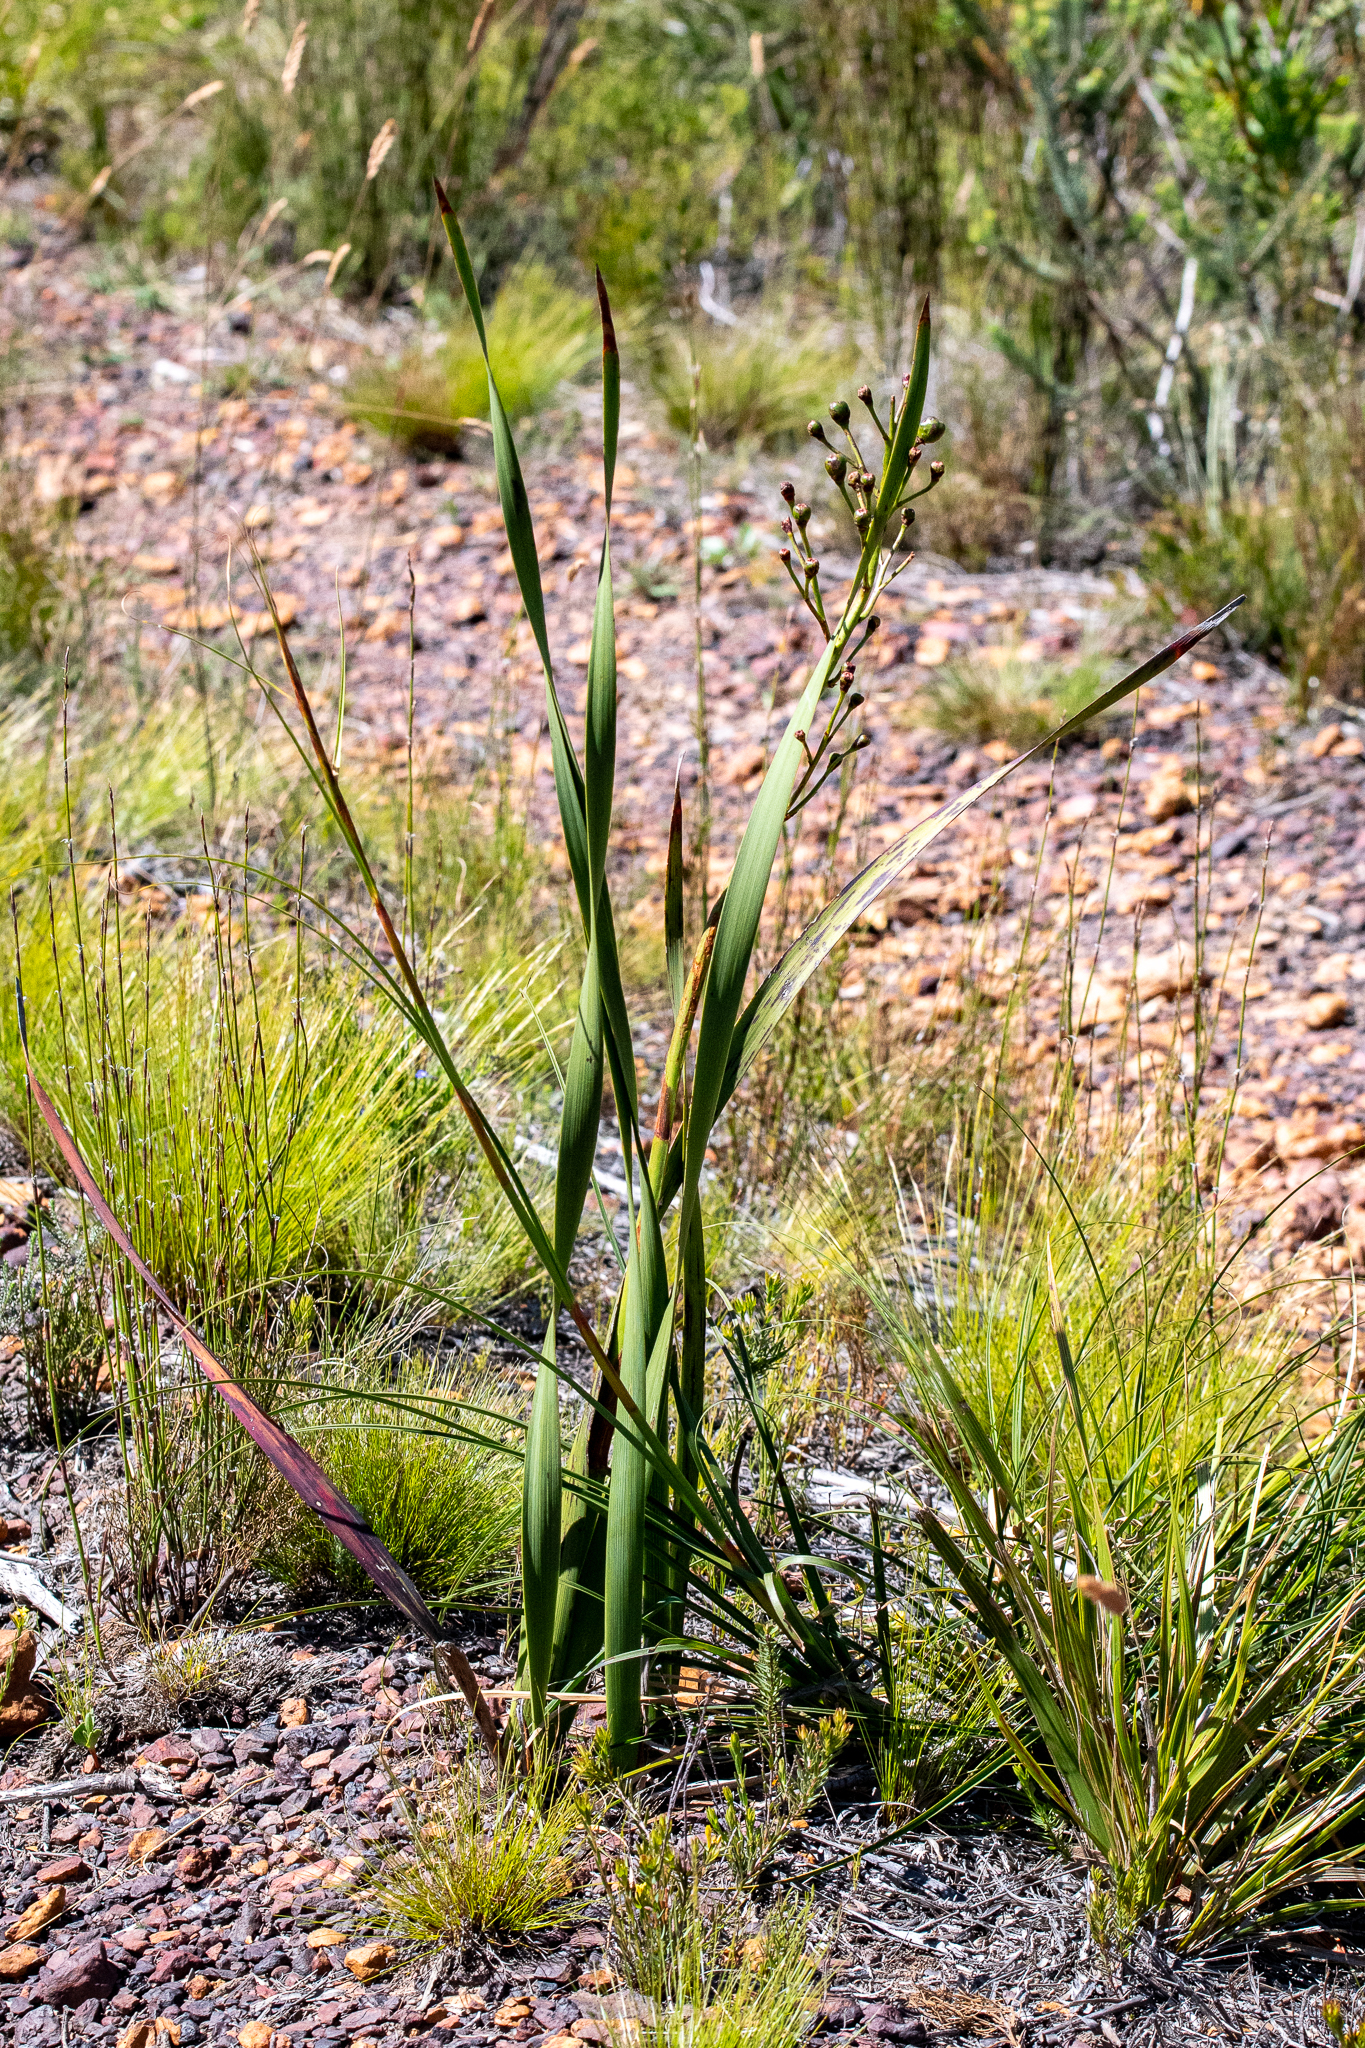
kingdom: Plantae
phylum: Tracheophyta
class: Liliopsida
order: Asparagales
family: Iridaceae
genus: Pillansia
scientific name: Pillansia templemannii
